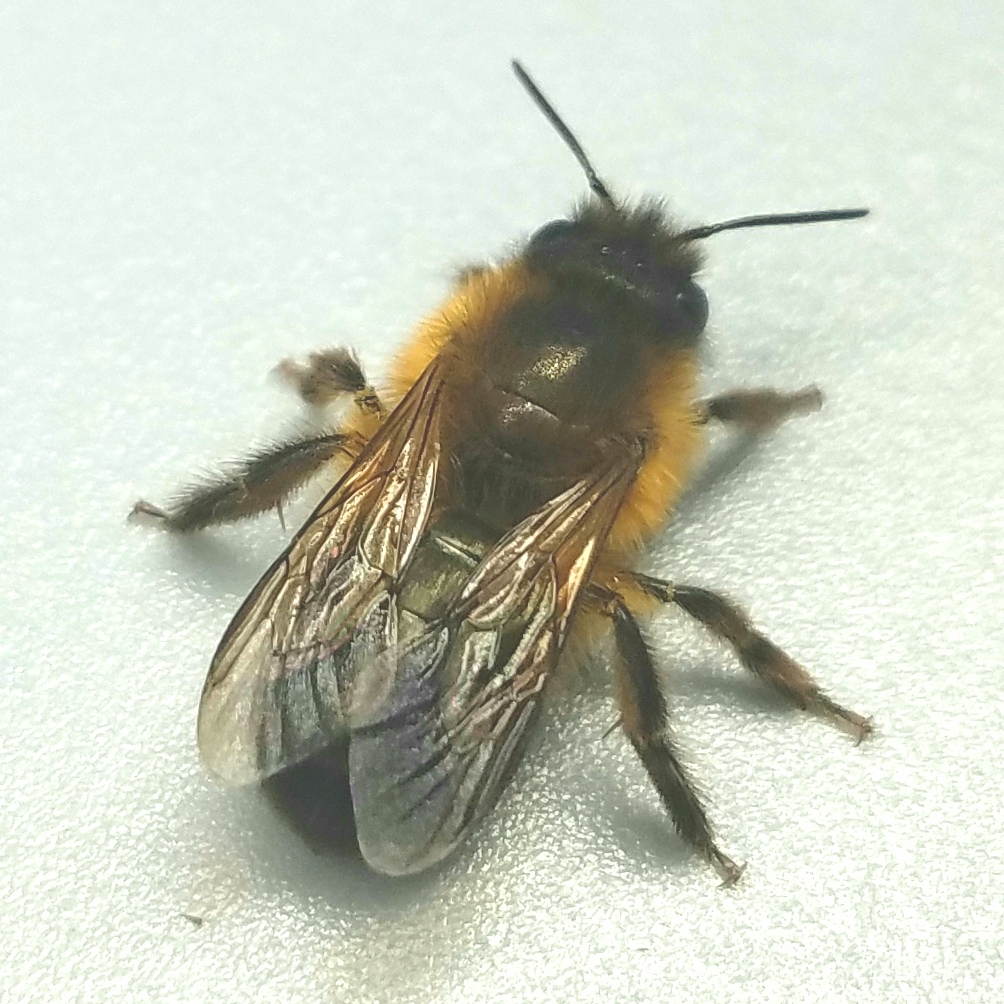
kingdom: Animalia
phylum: Arthropoda
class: Insecta
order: Hymenoptera
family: Megachilidae
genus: Osmia
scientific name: Osmia taurus
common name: Taurus mason bee
